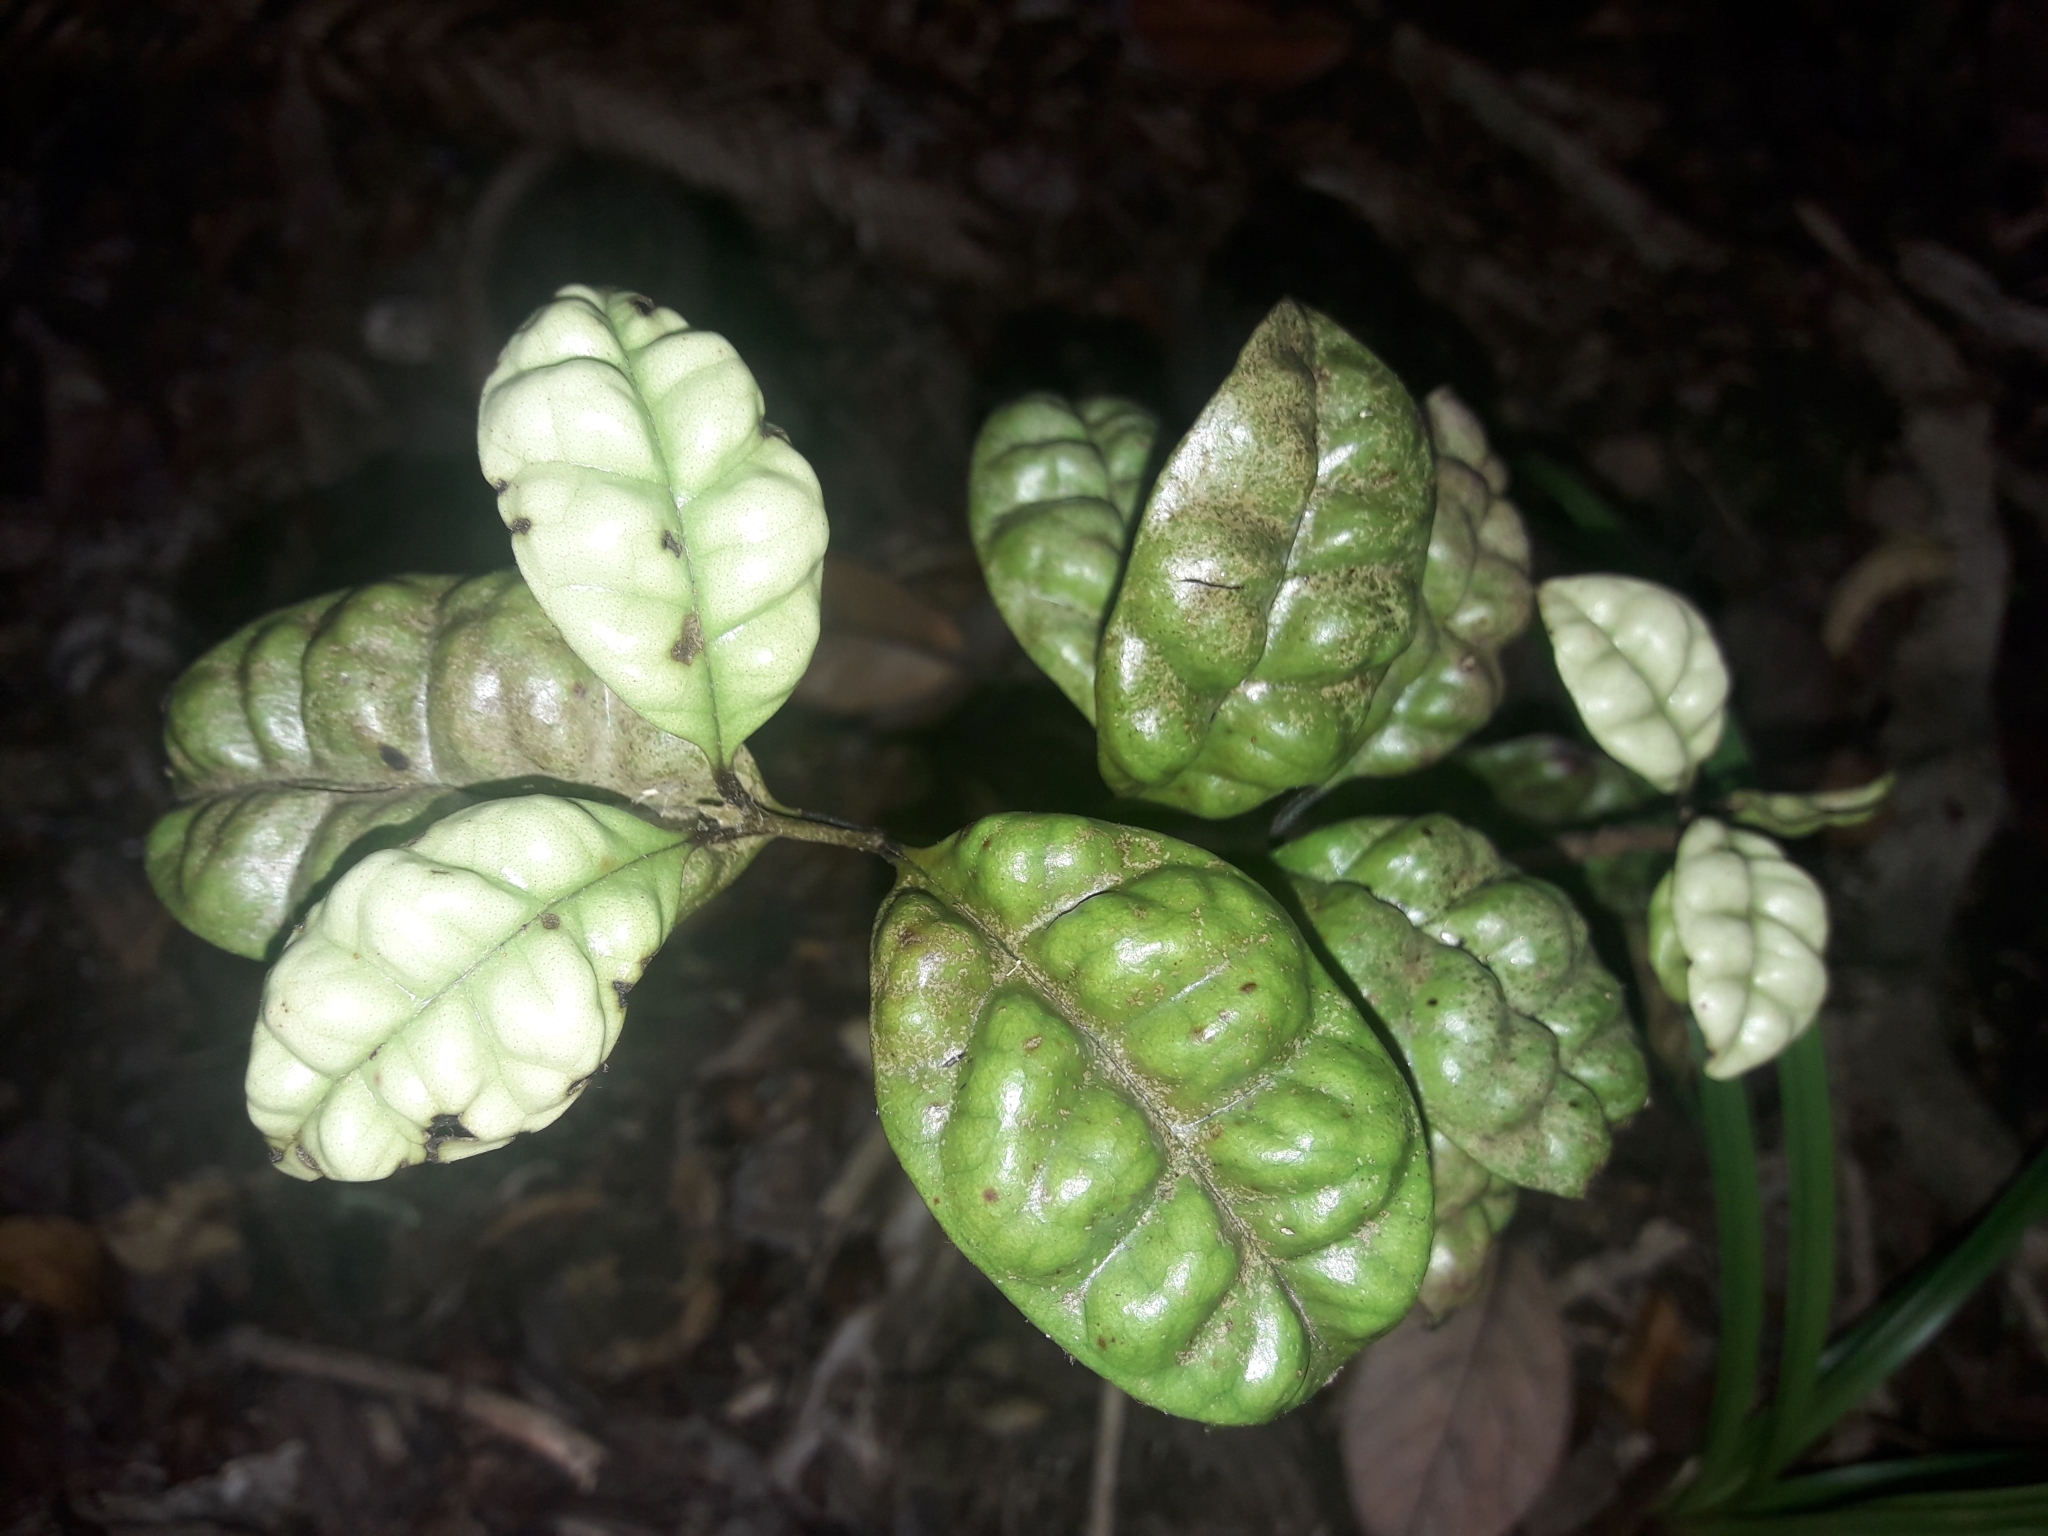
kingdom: Plantae
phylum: Tracheophyta
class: Magnoliopsida
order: Myrtales
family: Myrtaceae
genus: Lophomyrtus
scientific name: Lophomyrtus bullata
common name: Rama rama
